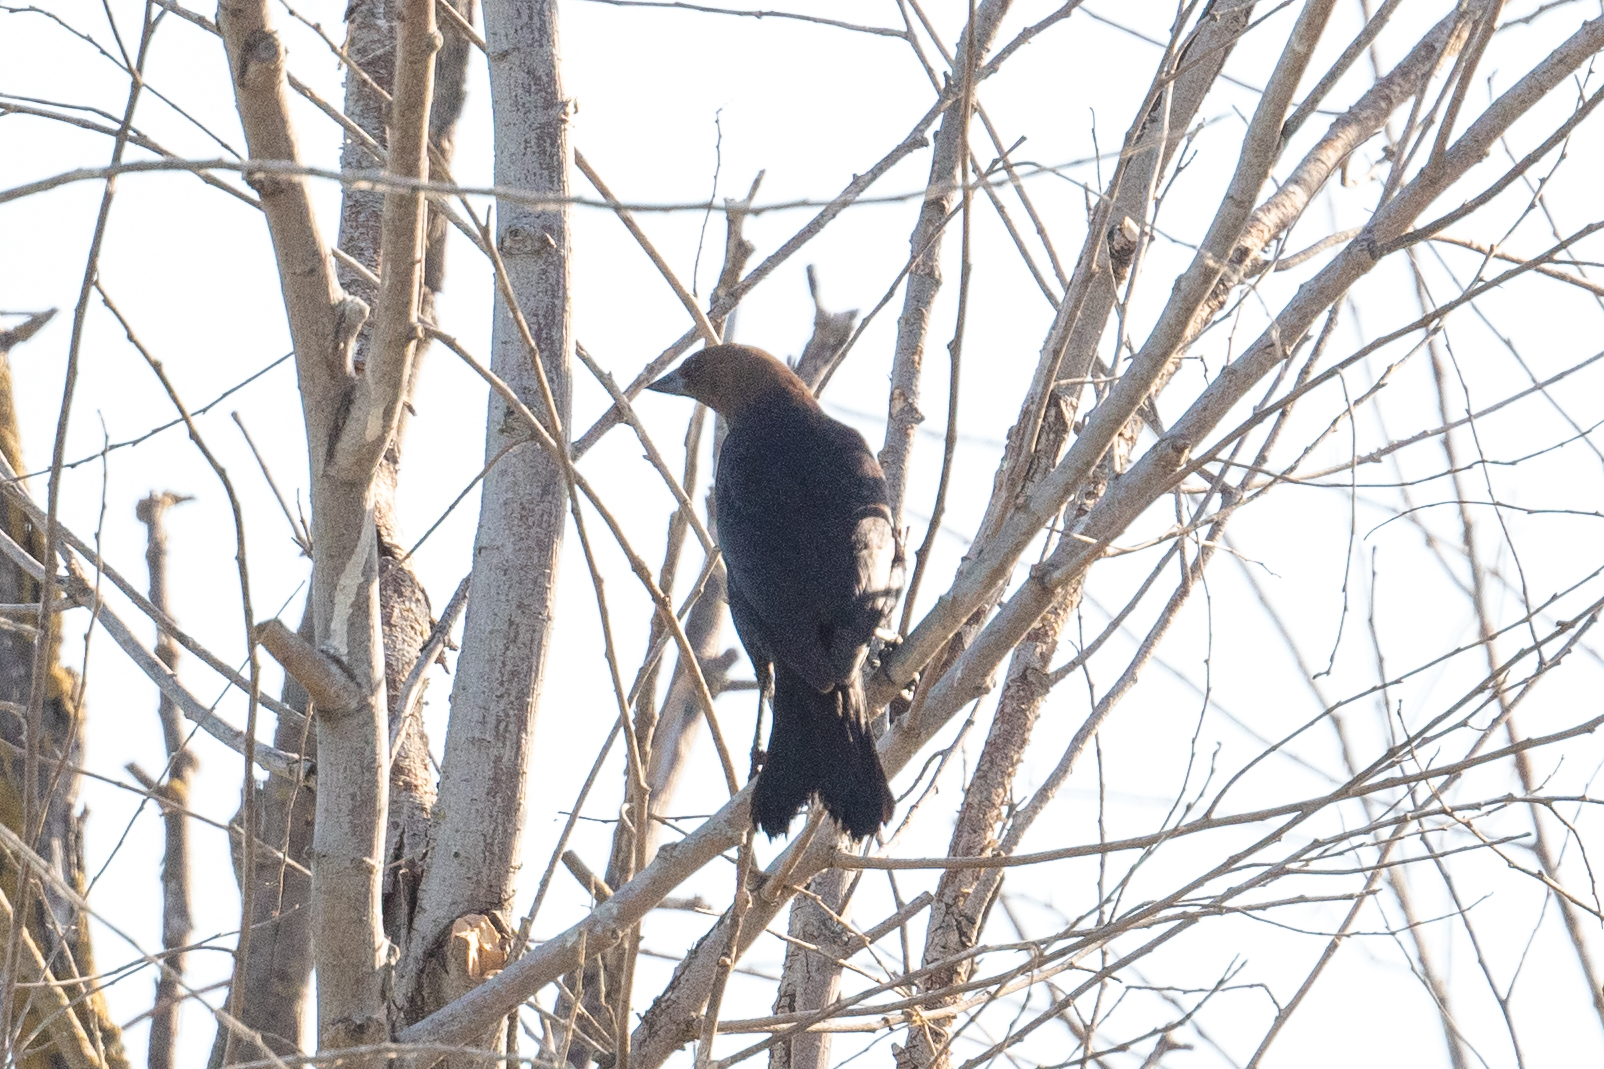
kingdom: Animalia
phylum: Chordata
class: Aves
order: Passeriformes
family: Icteridae
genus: Molothrus
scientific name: Molothrus ater
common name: Brown-headed cowbird
